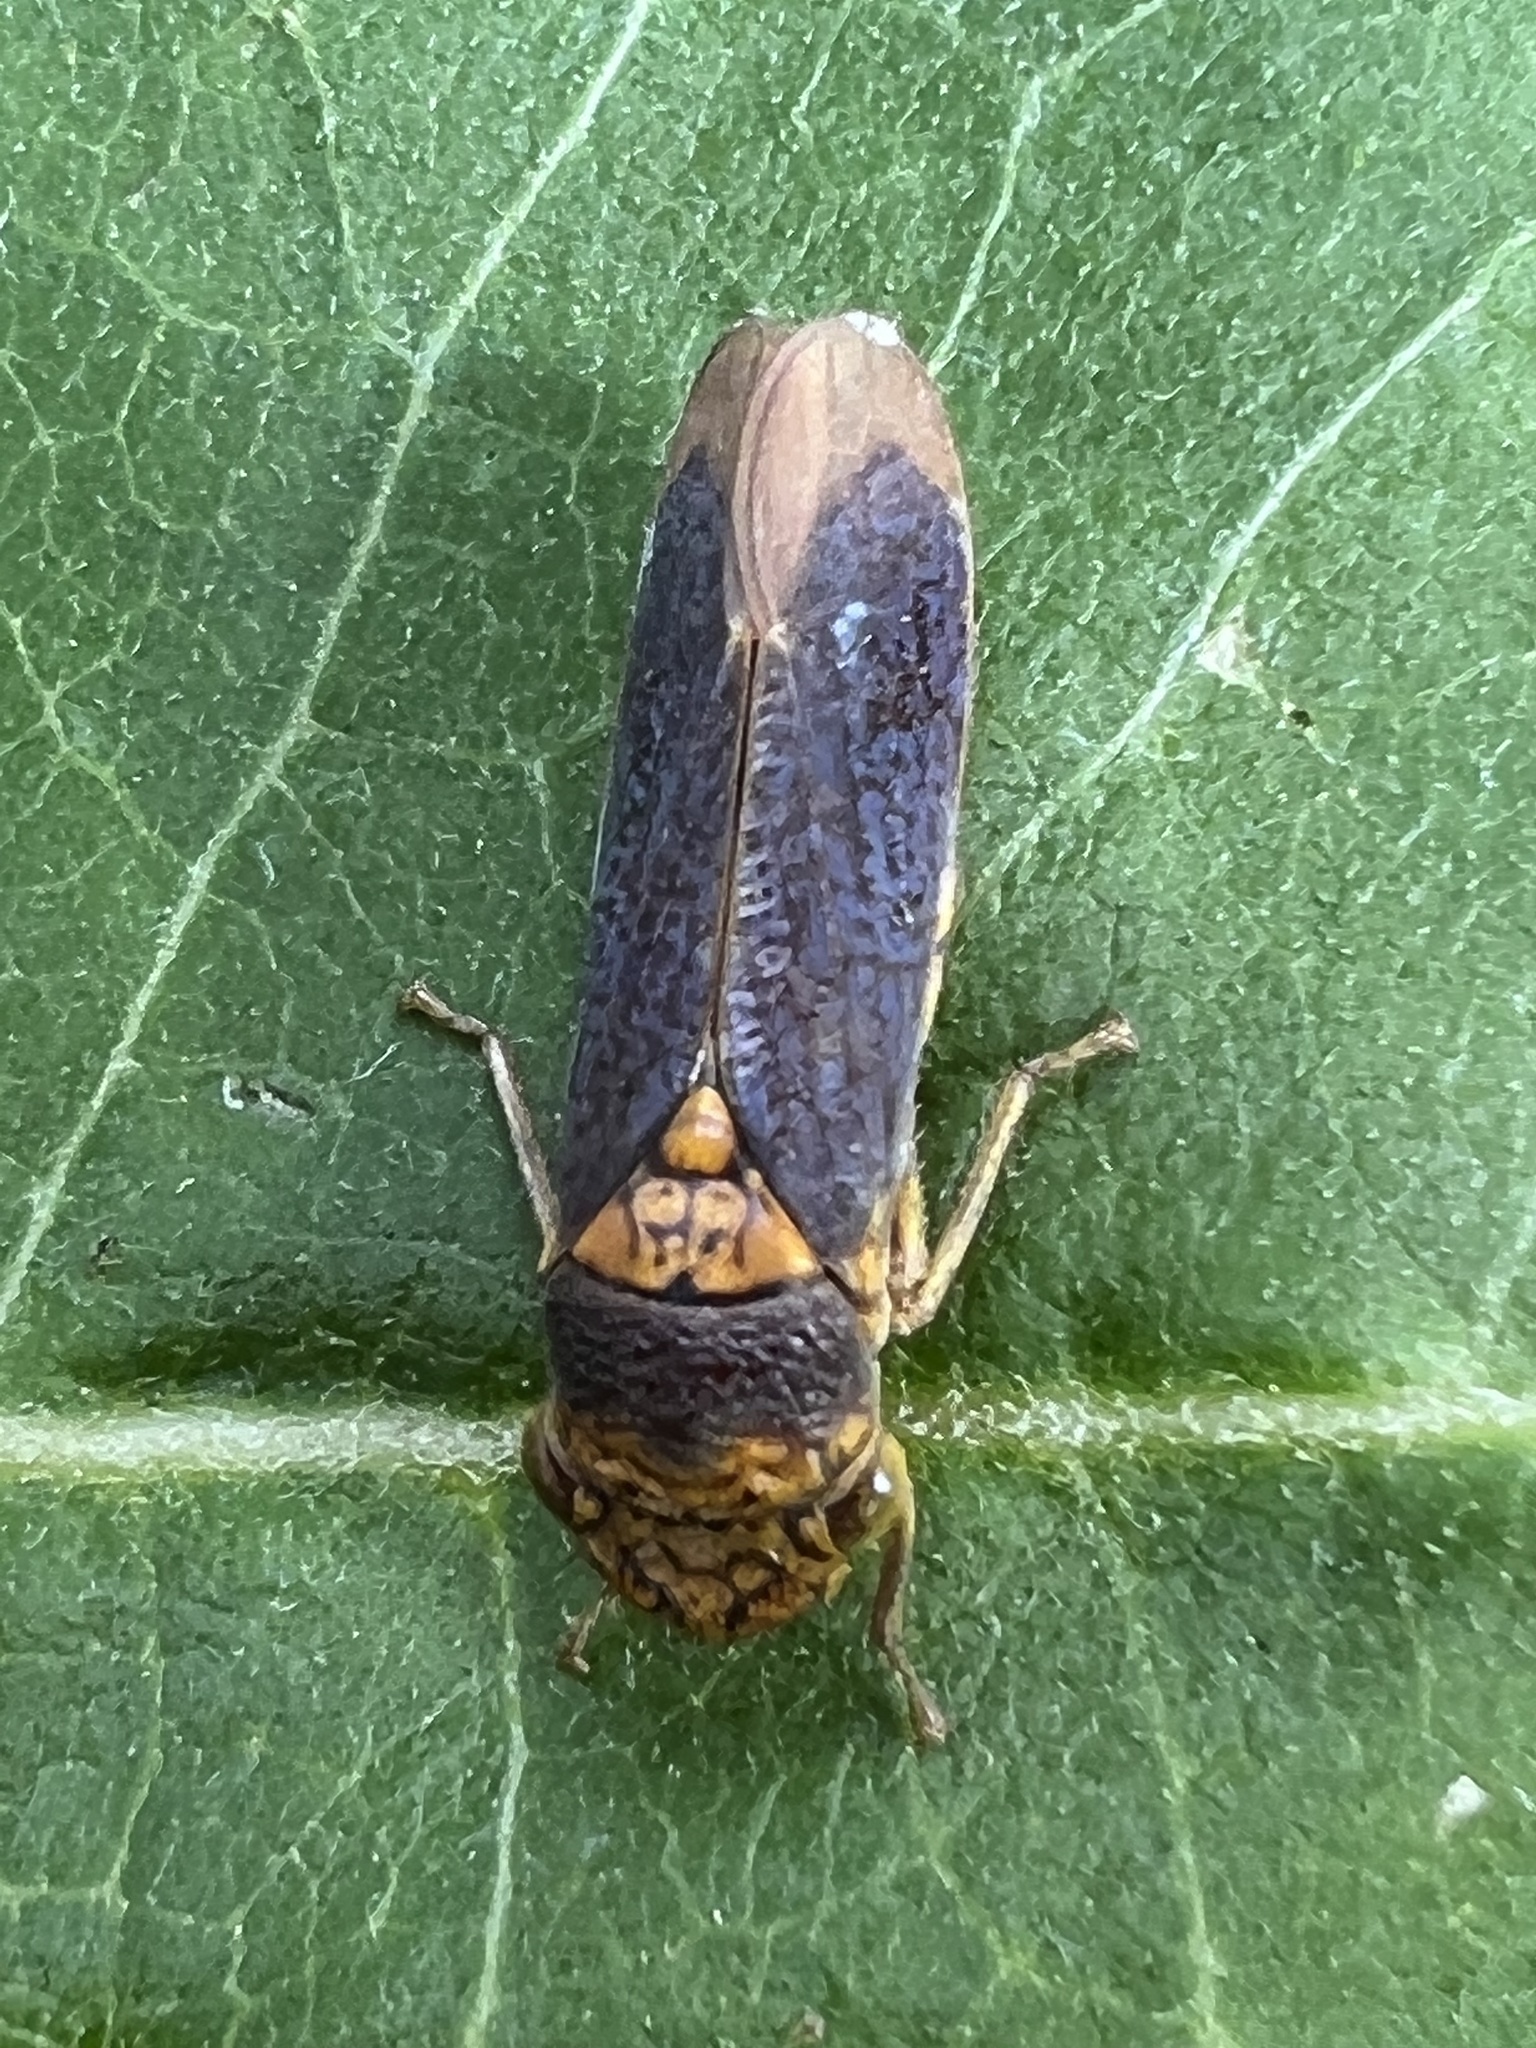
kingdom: Animalia
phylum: Arthropoda
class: Insecta
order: Hemiptera
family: Cicadellidae
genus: Oncometopia
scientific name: Oncometopia orbona
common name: Broad-headed sharpshooter
